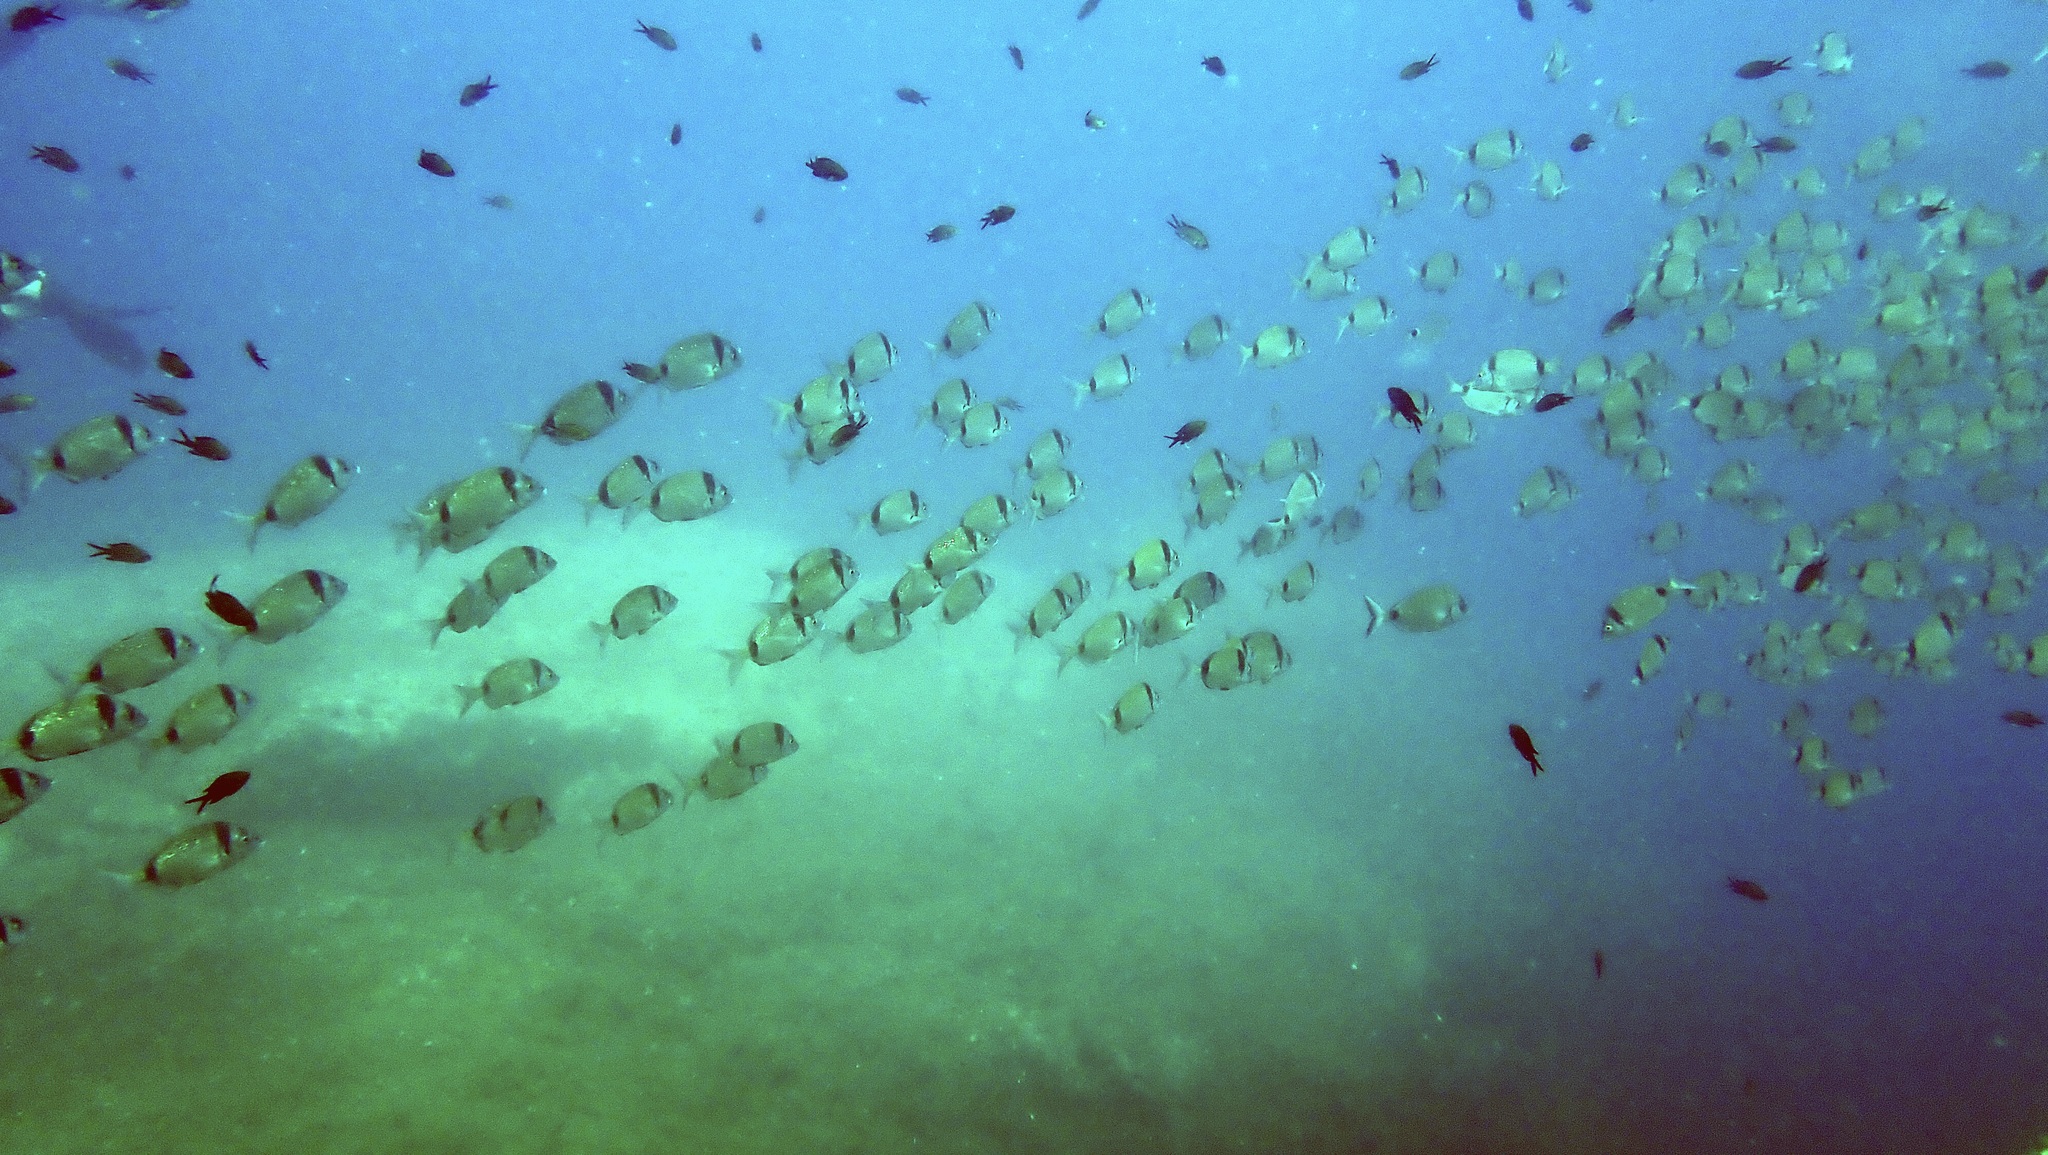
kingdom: Animalia
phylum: Chordata
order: Perciformes
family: Sparidae
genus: Diplodus
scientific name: Diplodus vulgaris
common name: Common two-banded seabream
